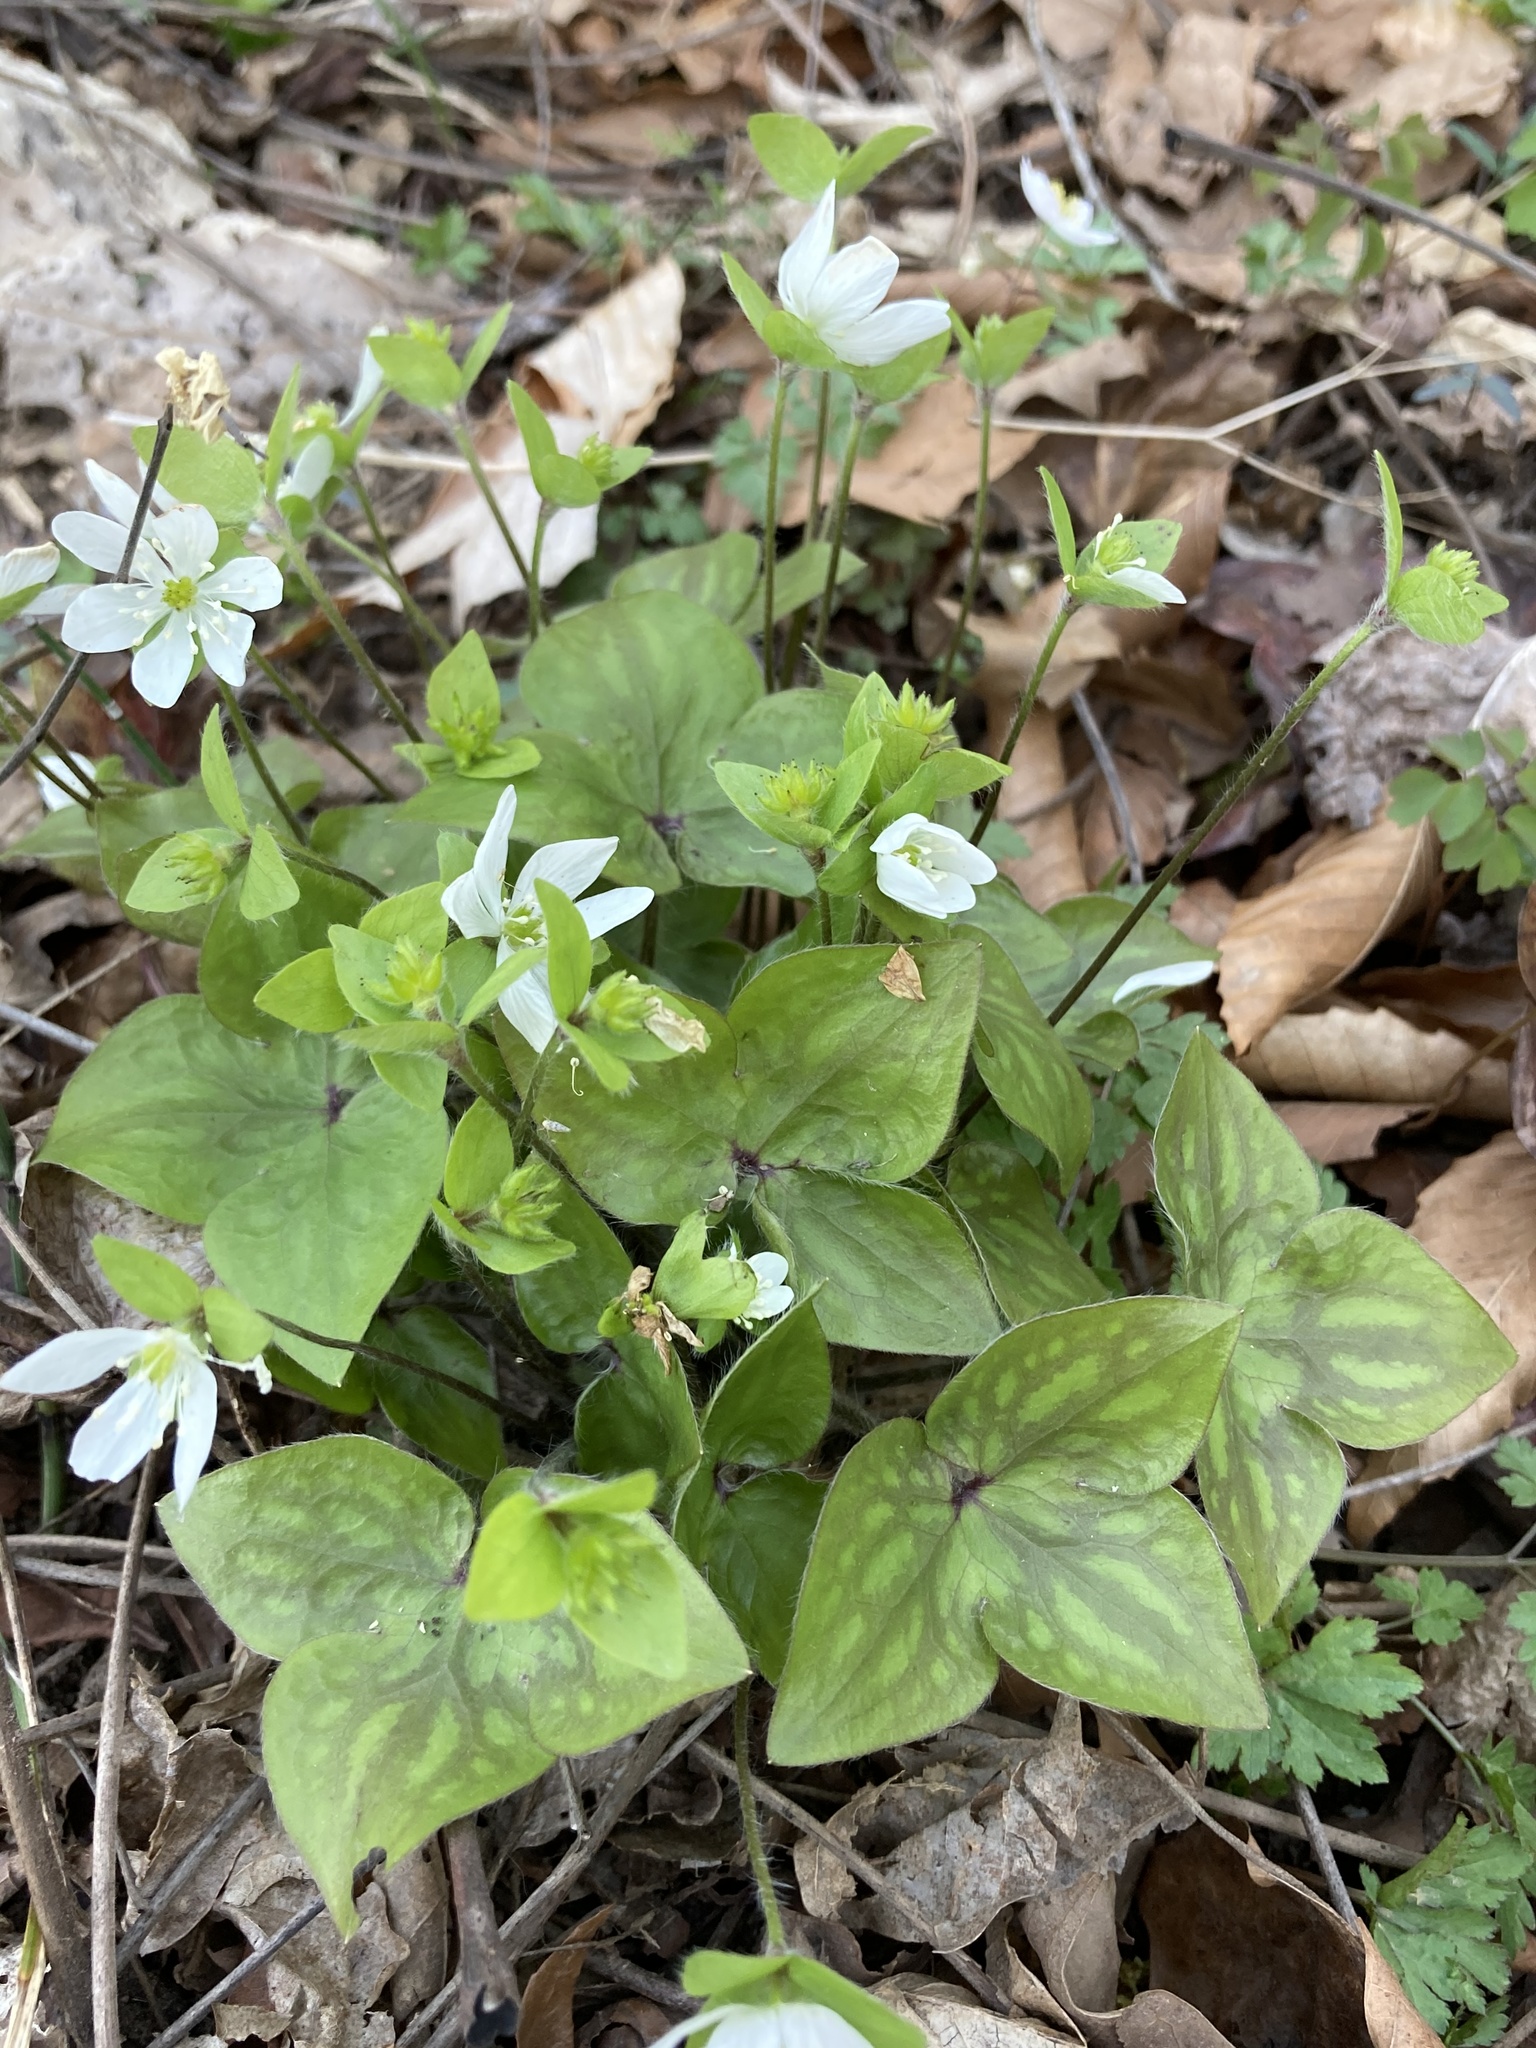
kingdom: Plantae
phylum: Tracheophyta
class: Magnoliopsida
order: Ranunculales
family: Ranunculaceae
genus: Hepatica
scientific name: Hepatica acutiloba
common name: Sharp-lobed hepatica
